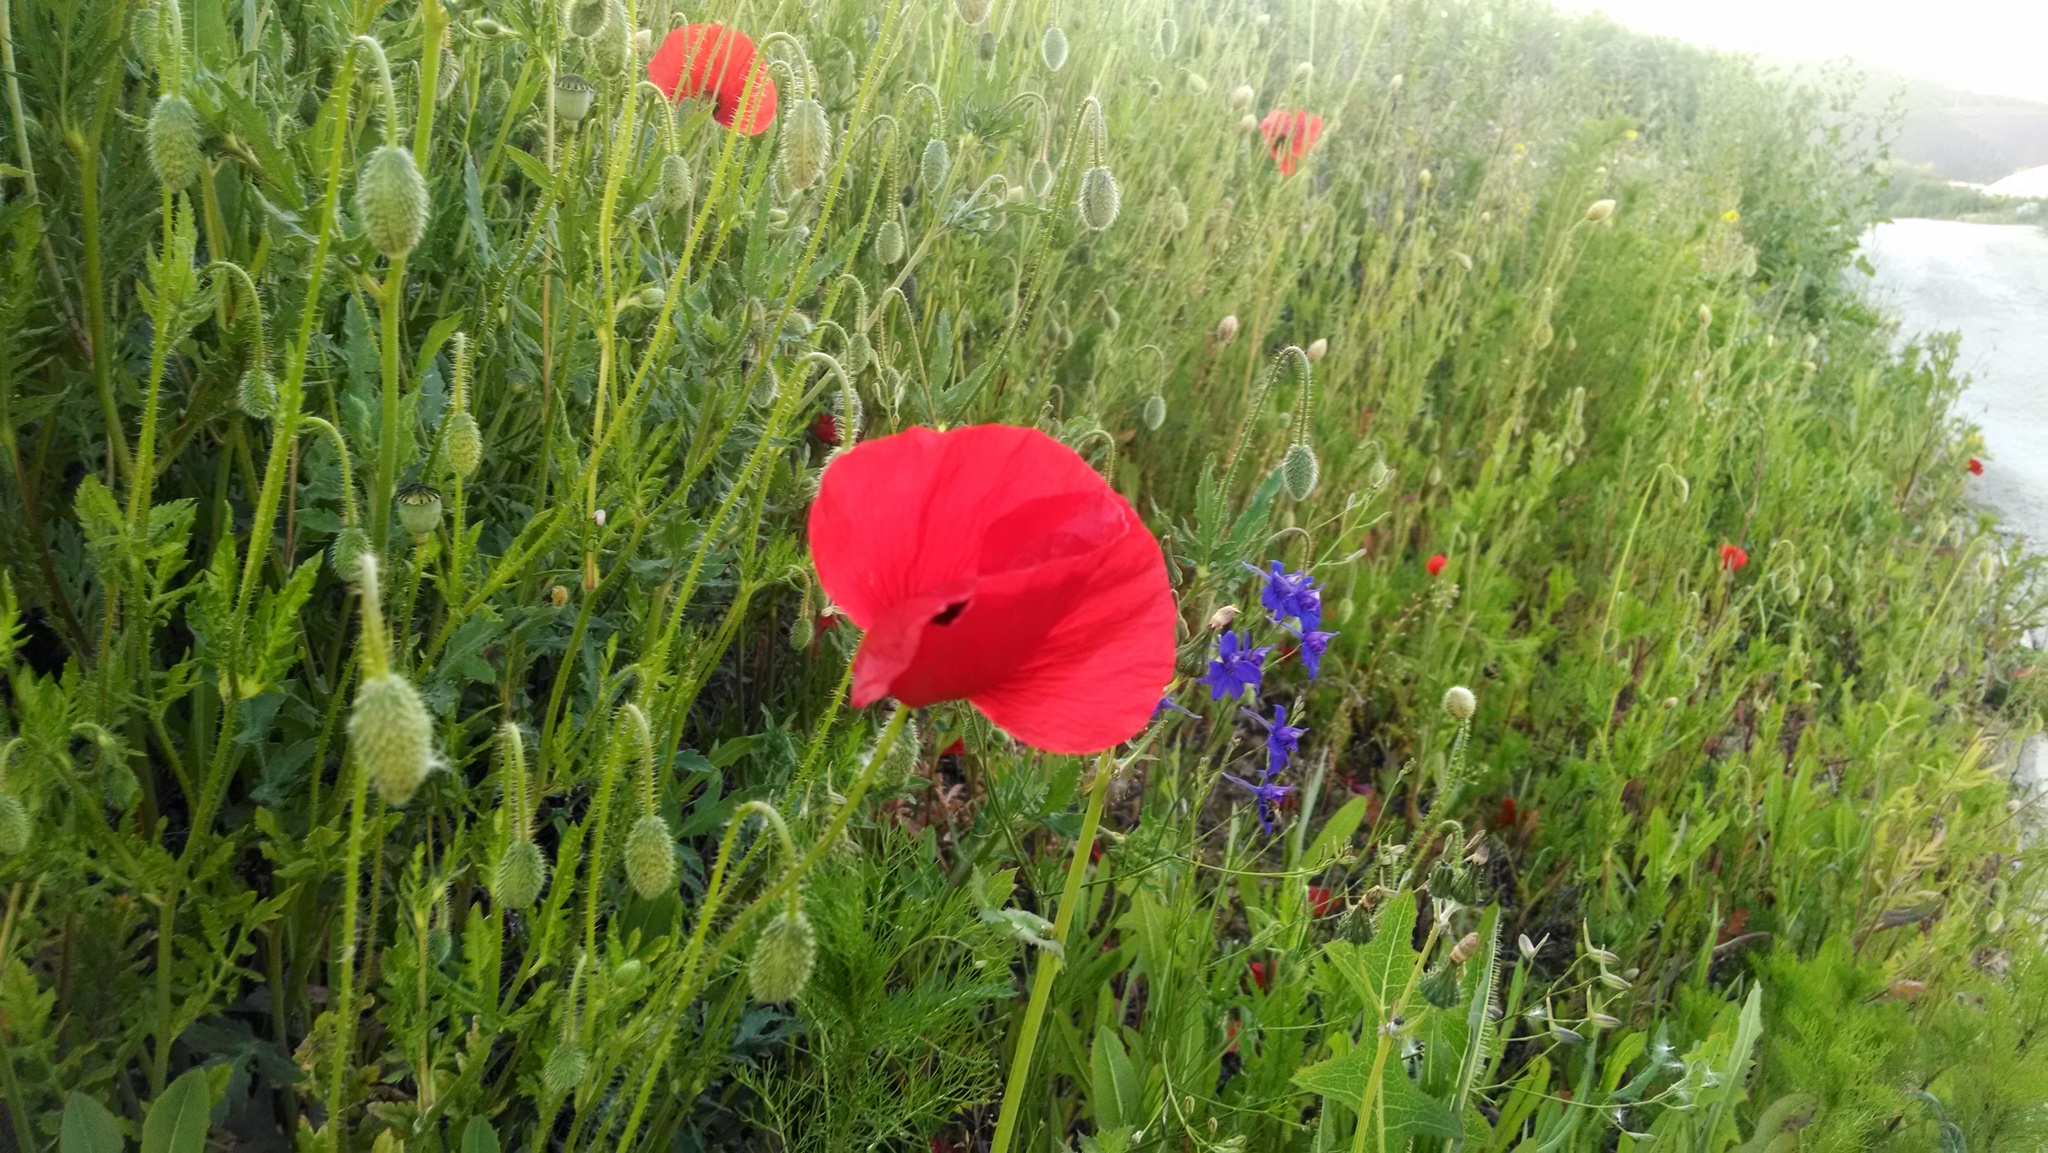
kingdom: Plantae
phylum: Tracheophyta
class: Magnoliopsida
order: Ranunculales
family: Papaveraceae
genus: Papaver
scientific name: Papaver rhoeas
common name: Corn poppy
